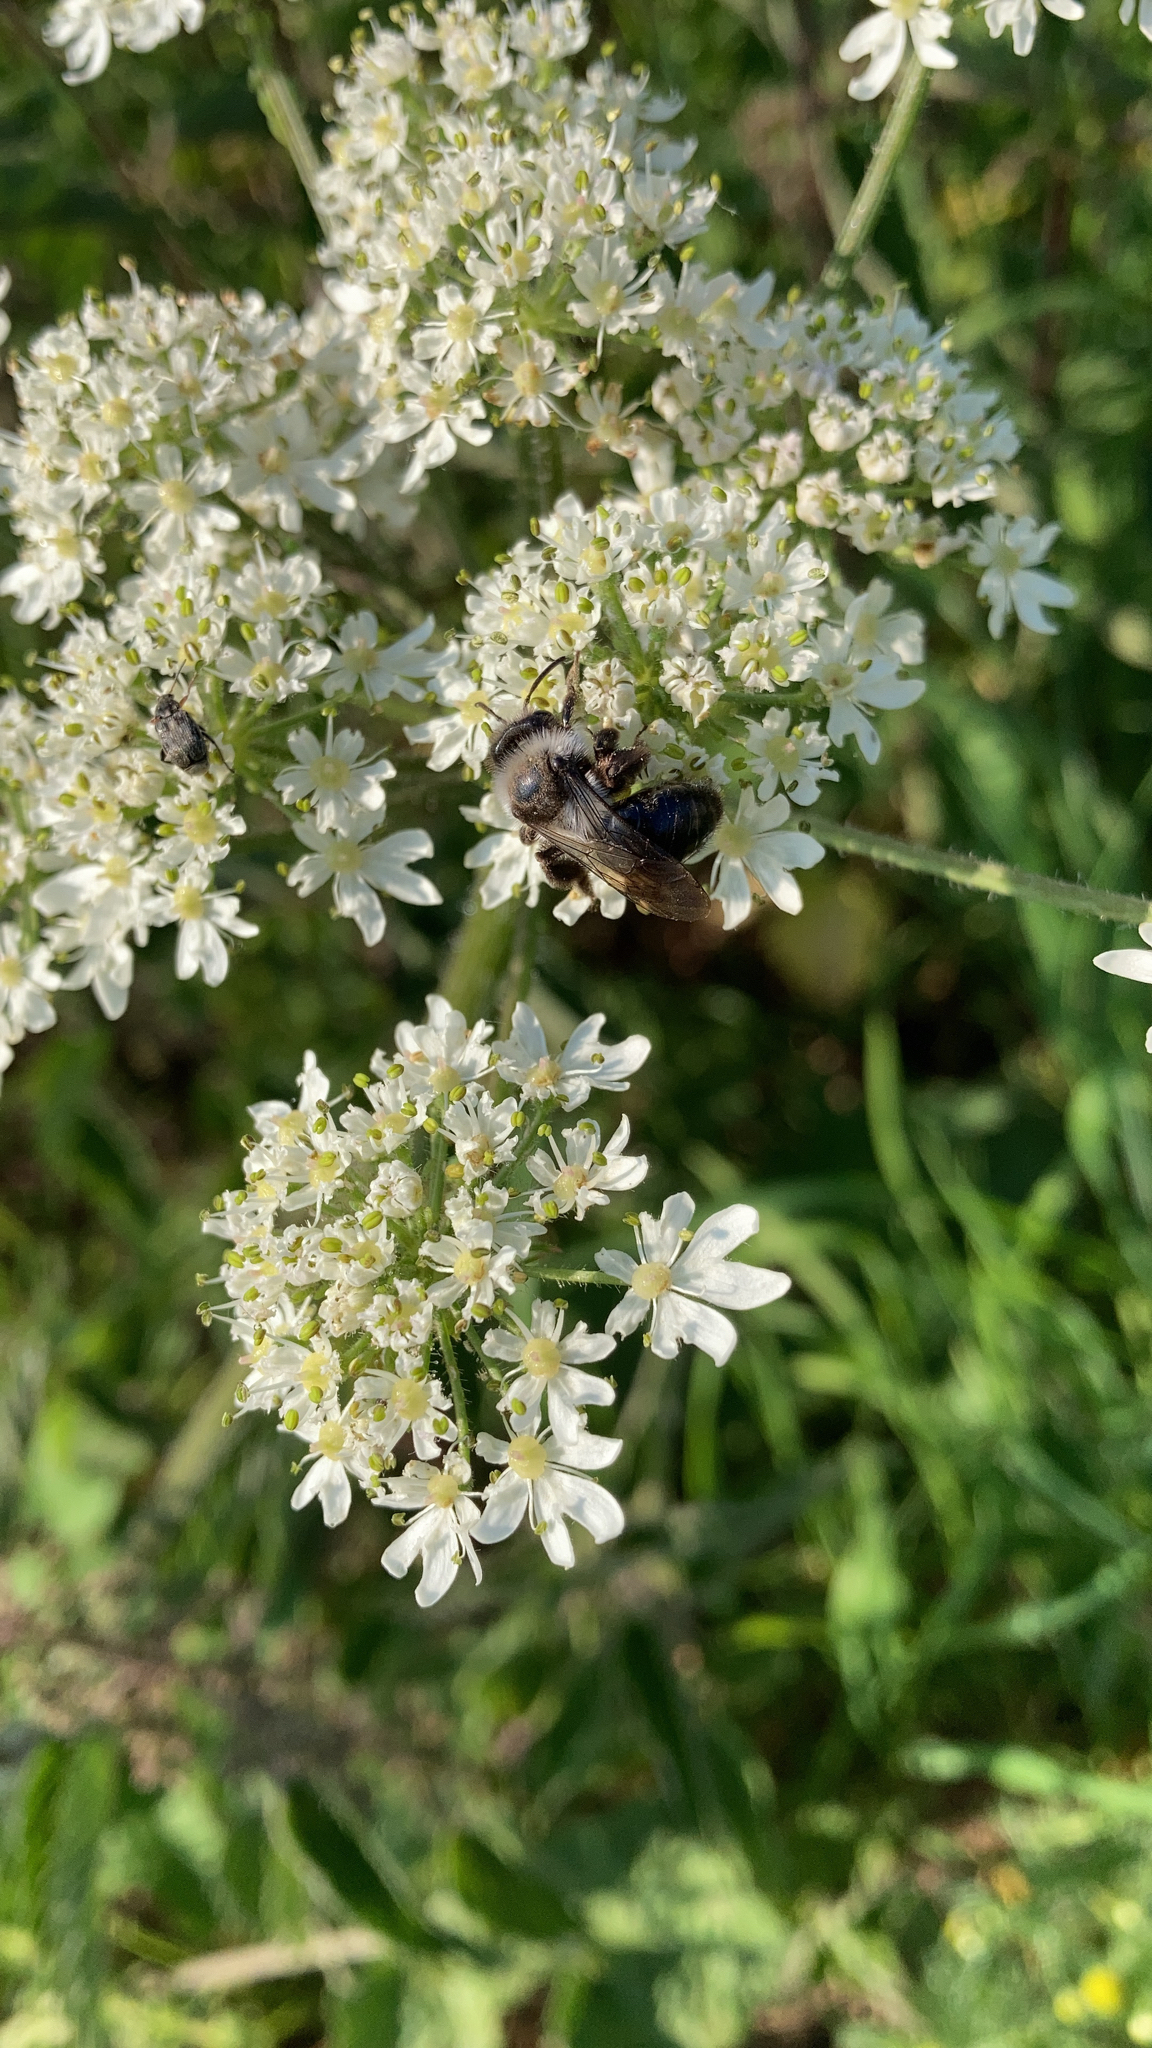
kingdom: Animalia
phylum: Arthropoda
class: Insecta
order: Hymenoptera
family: Andrenidae
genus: Andrena
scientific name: Andrena cineraria
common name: Ashy mining bee
